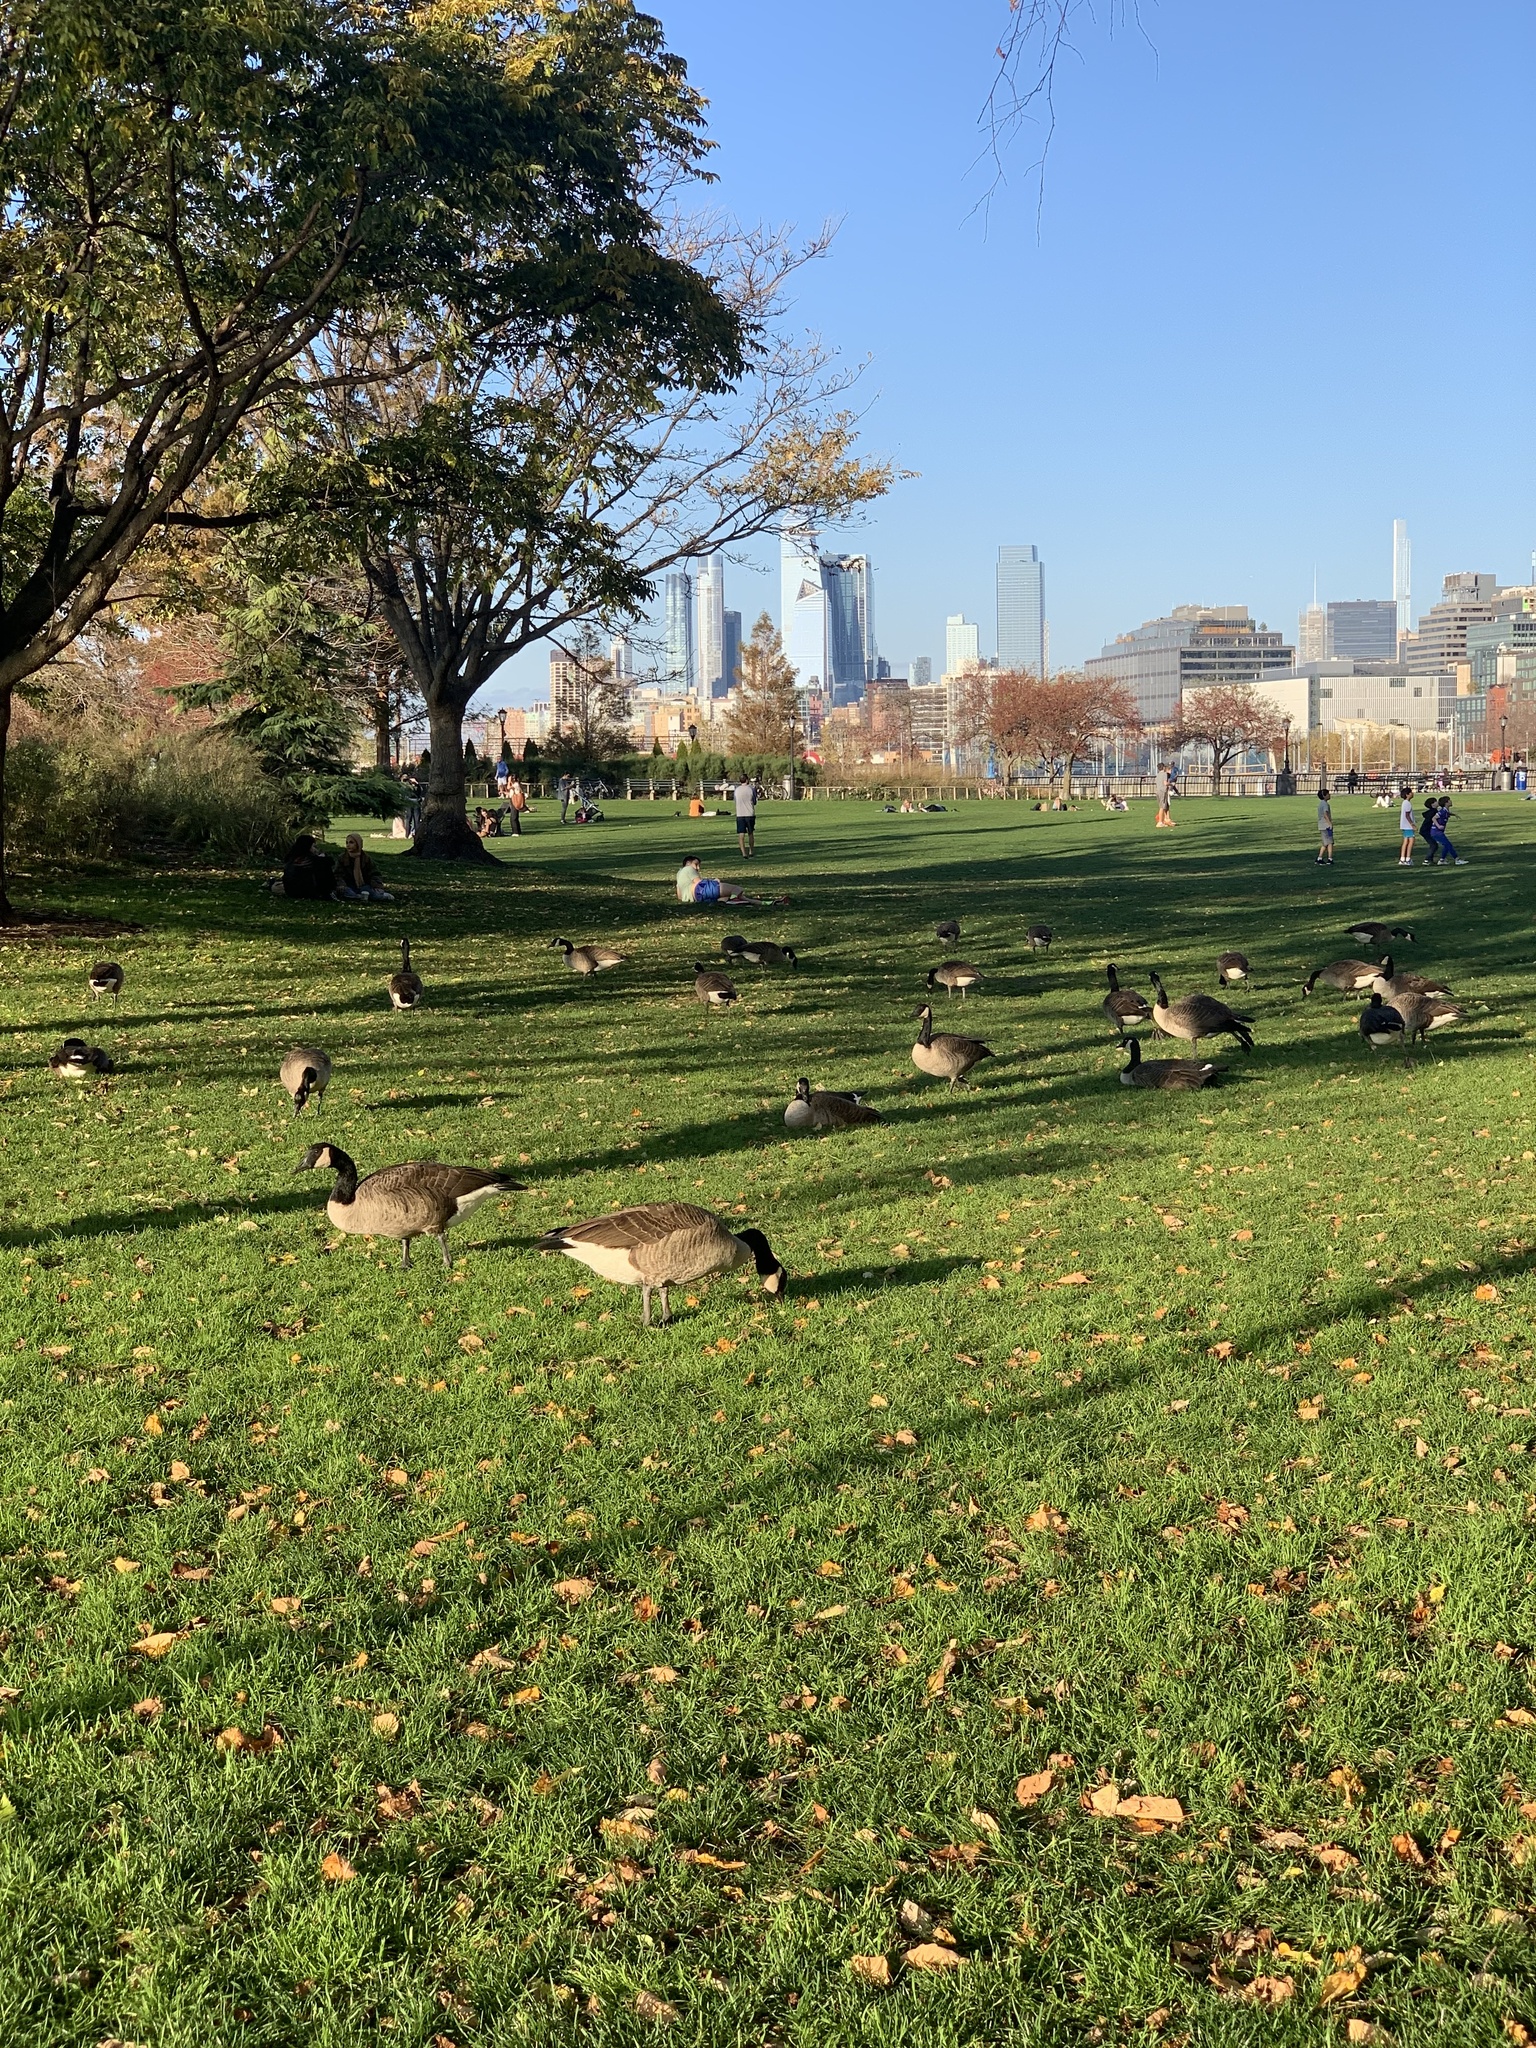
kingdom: Animalia
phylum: Chordata
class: Aves
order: Anseriformes
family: Anatidae
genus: Branta
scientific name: Branta canadensis
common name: Canada goose
